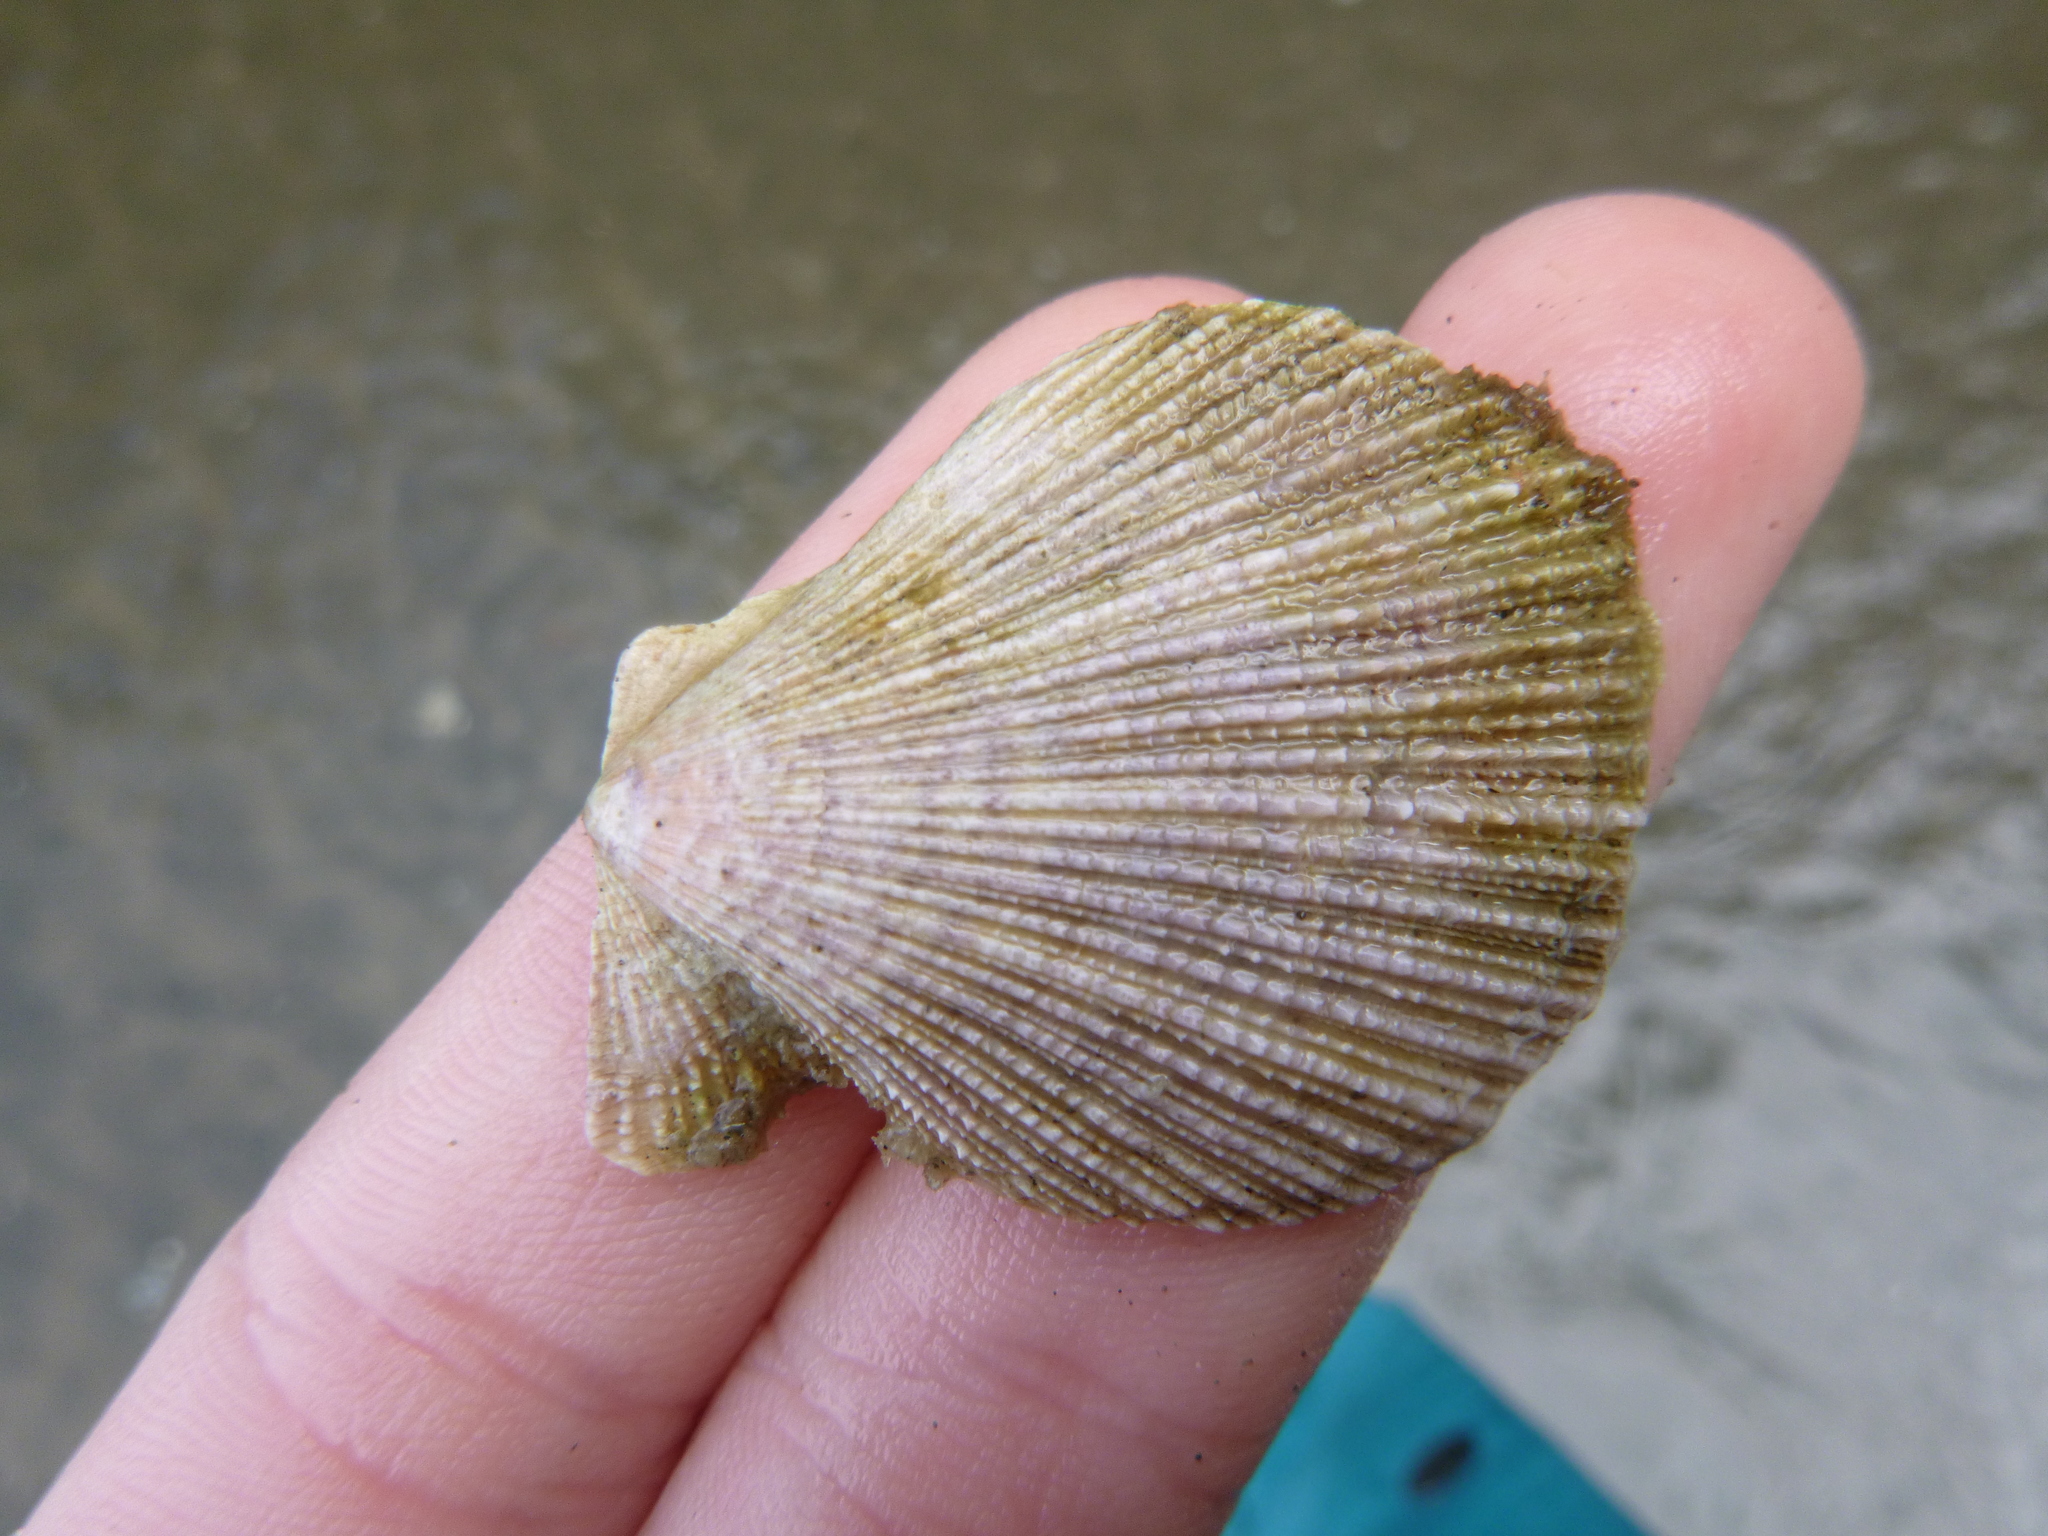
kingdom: Animalia
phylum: Mollusca
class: Bivalvia
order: Pectinida
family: Pectinidae
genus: Talochlamys
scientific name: Talochlamys zelandiae
